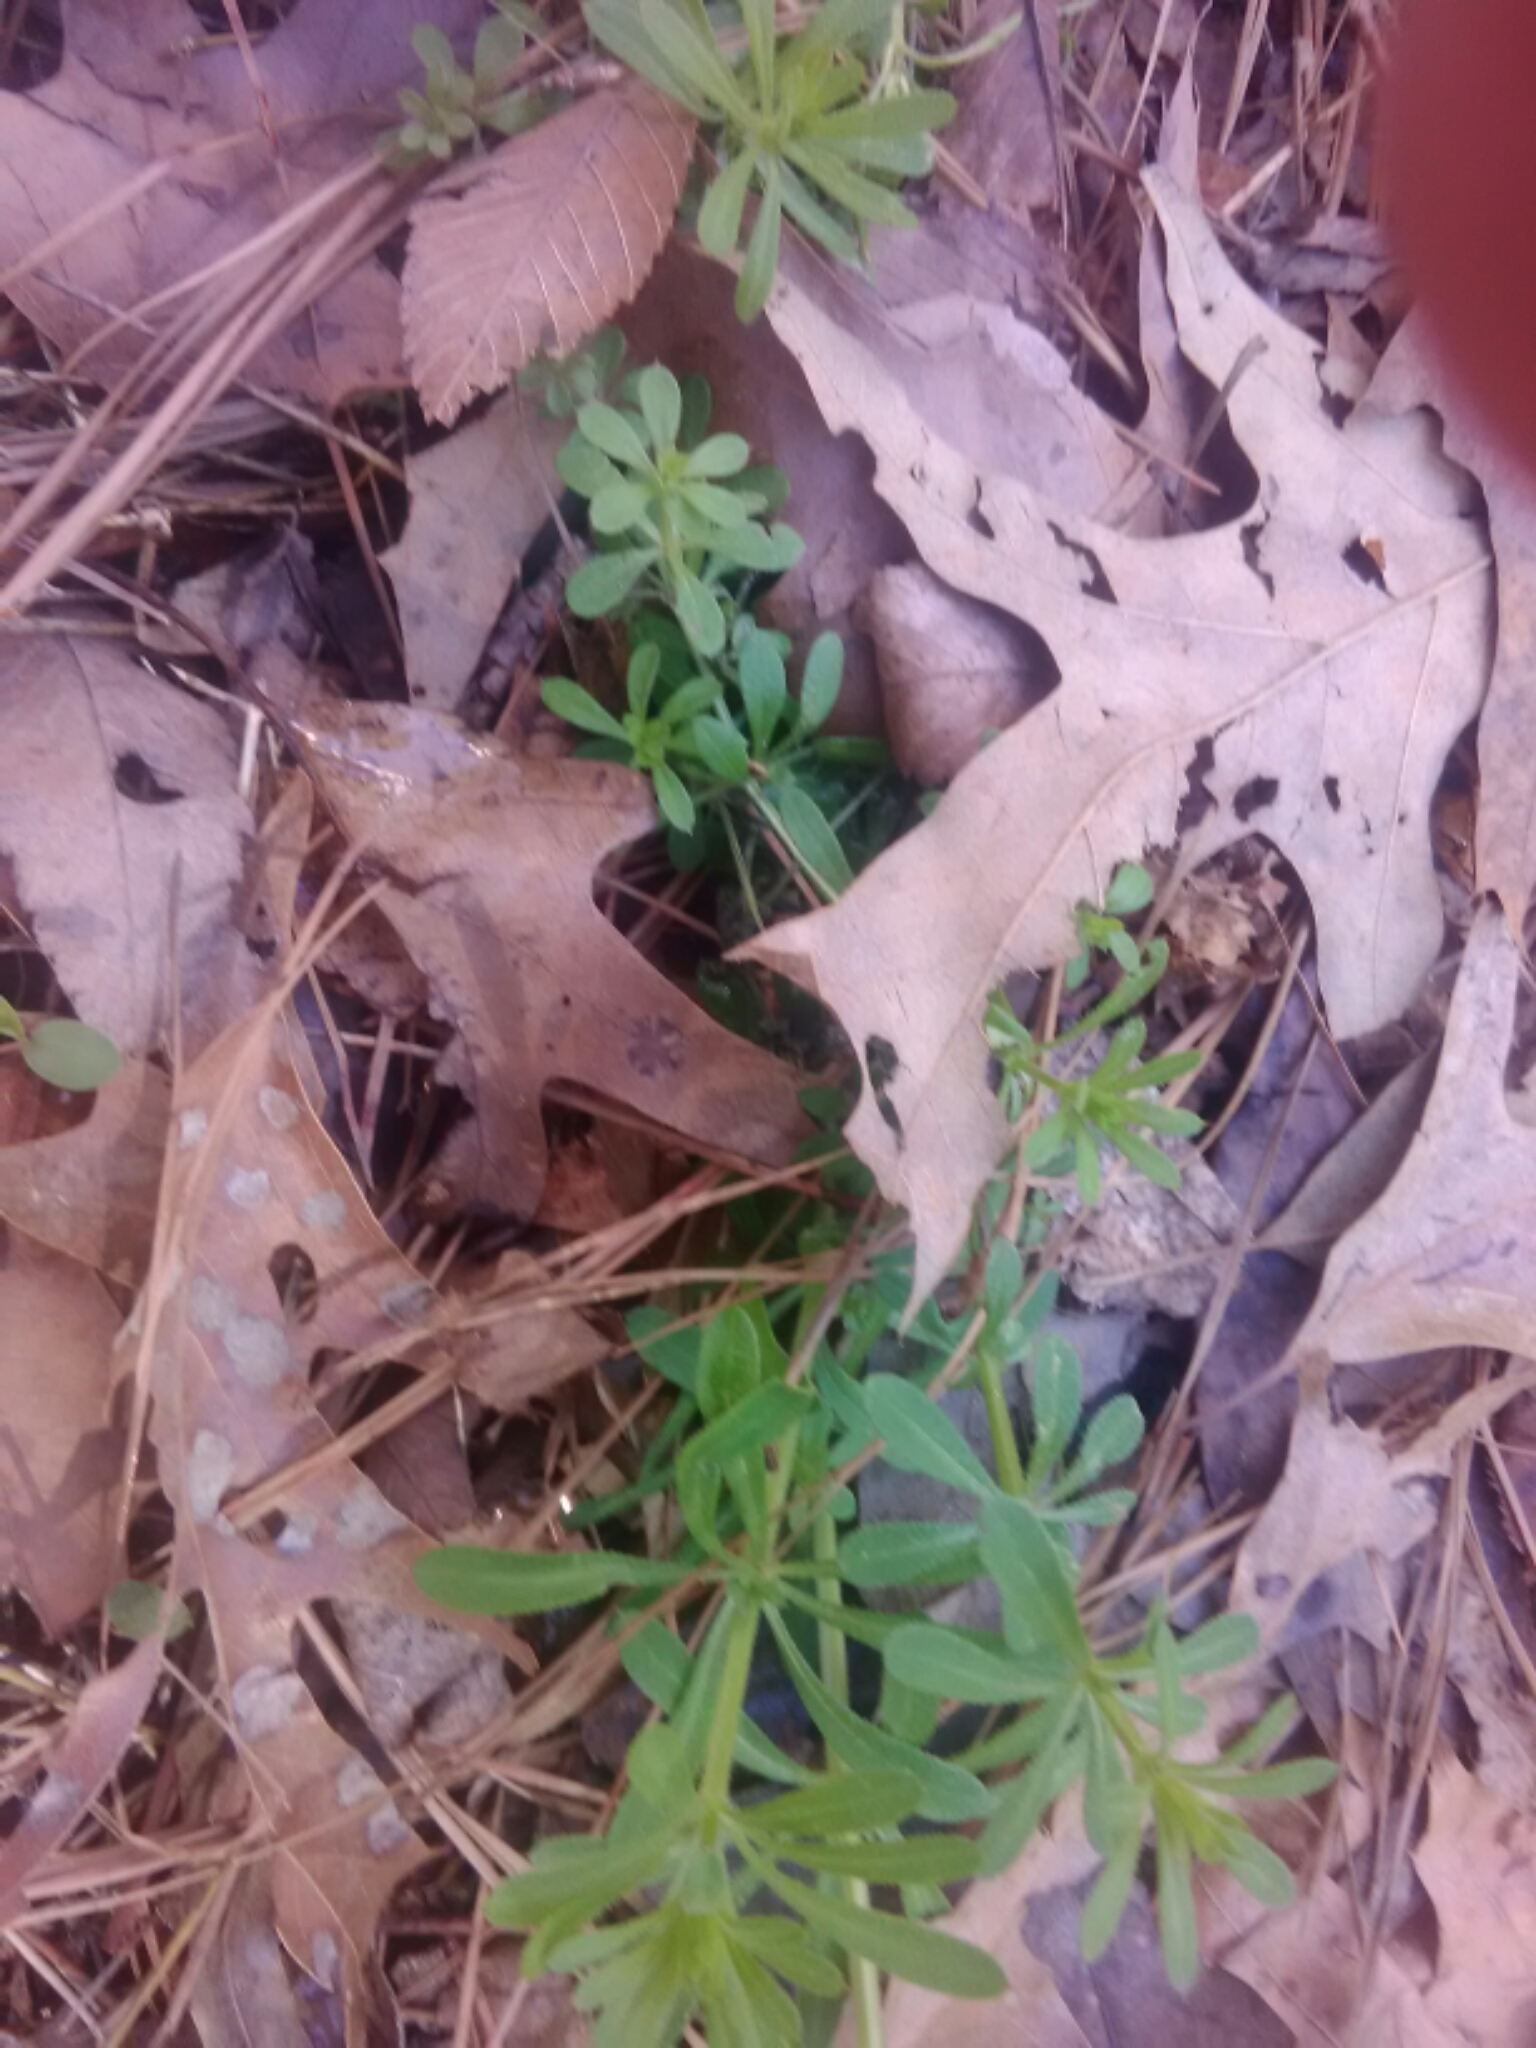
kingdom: Plantae
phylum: Tracheophyta
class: Magnoliopsida
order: Gentianales
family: Rubiaceae
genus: Galium
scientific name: Galium aparine
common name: Cleavers
